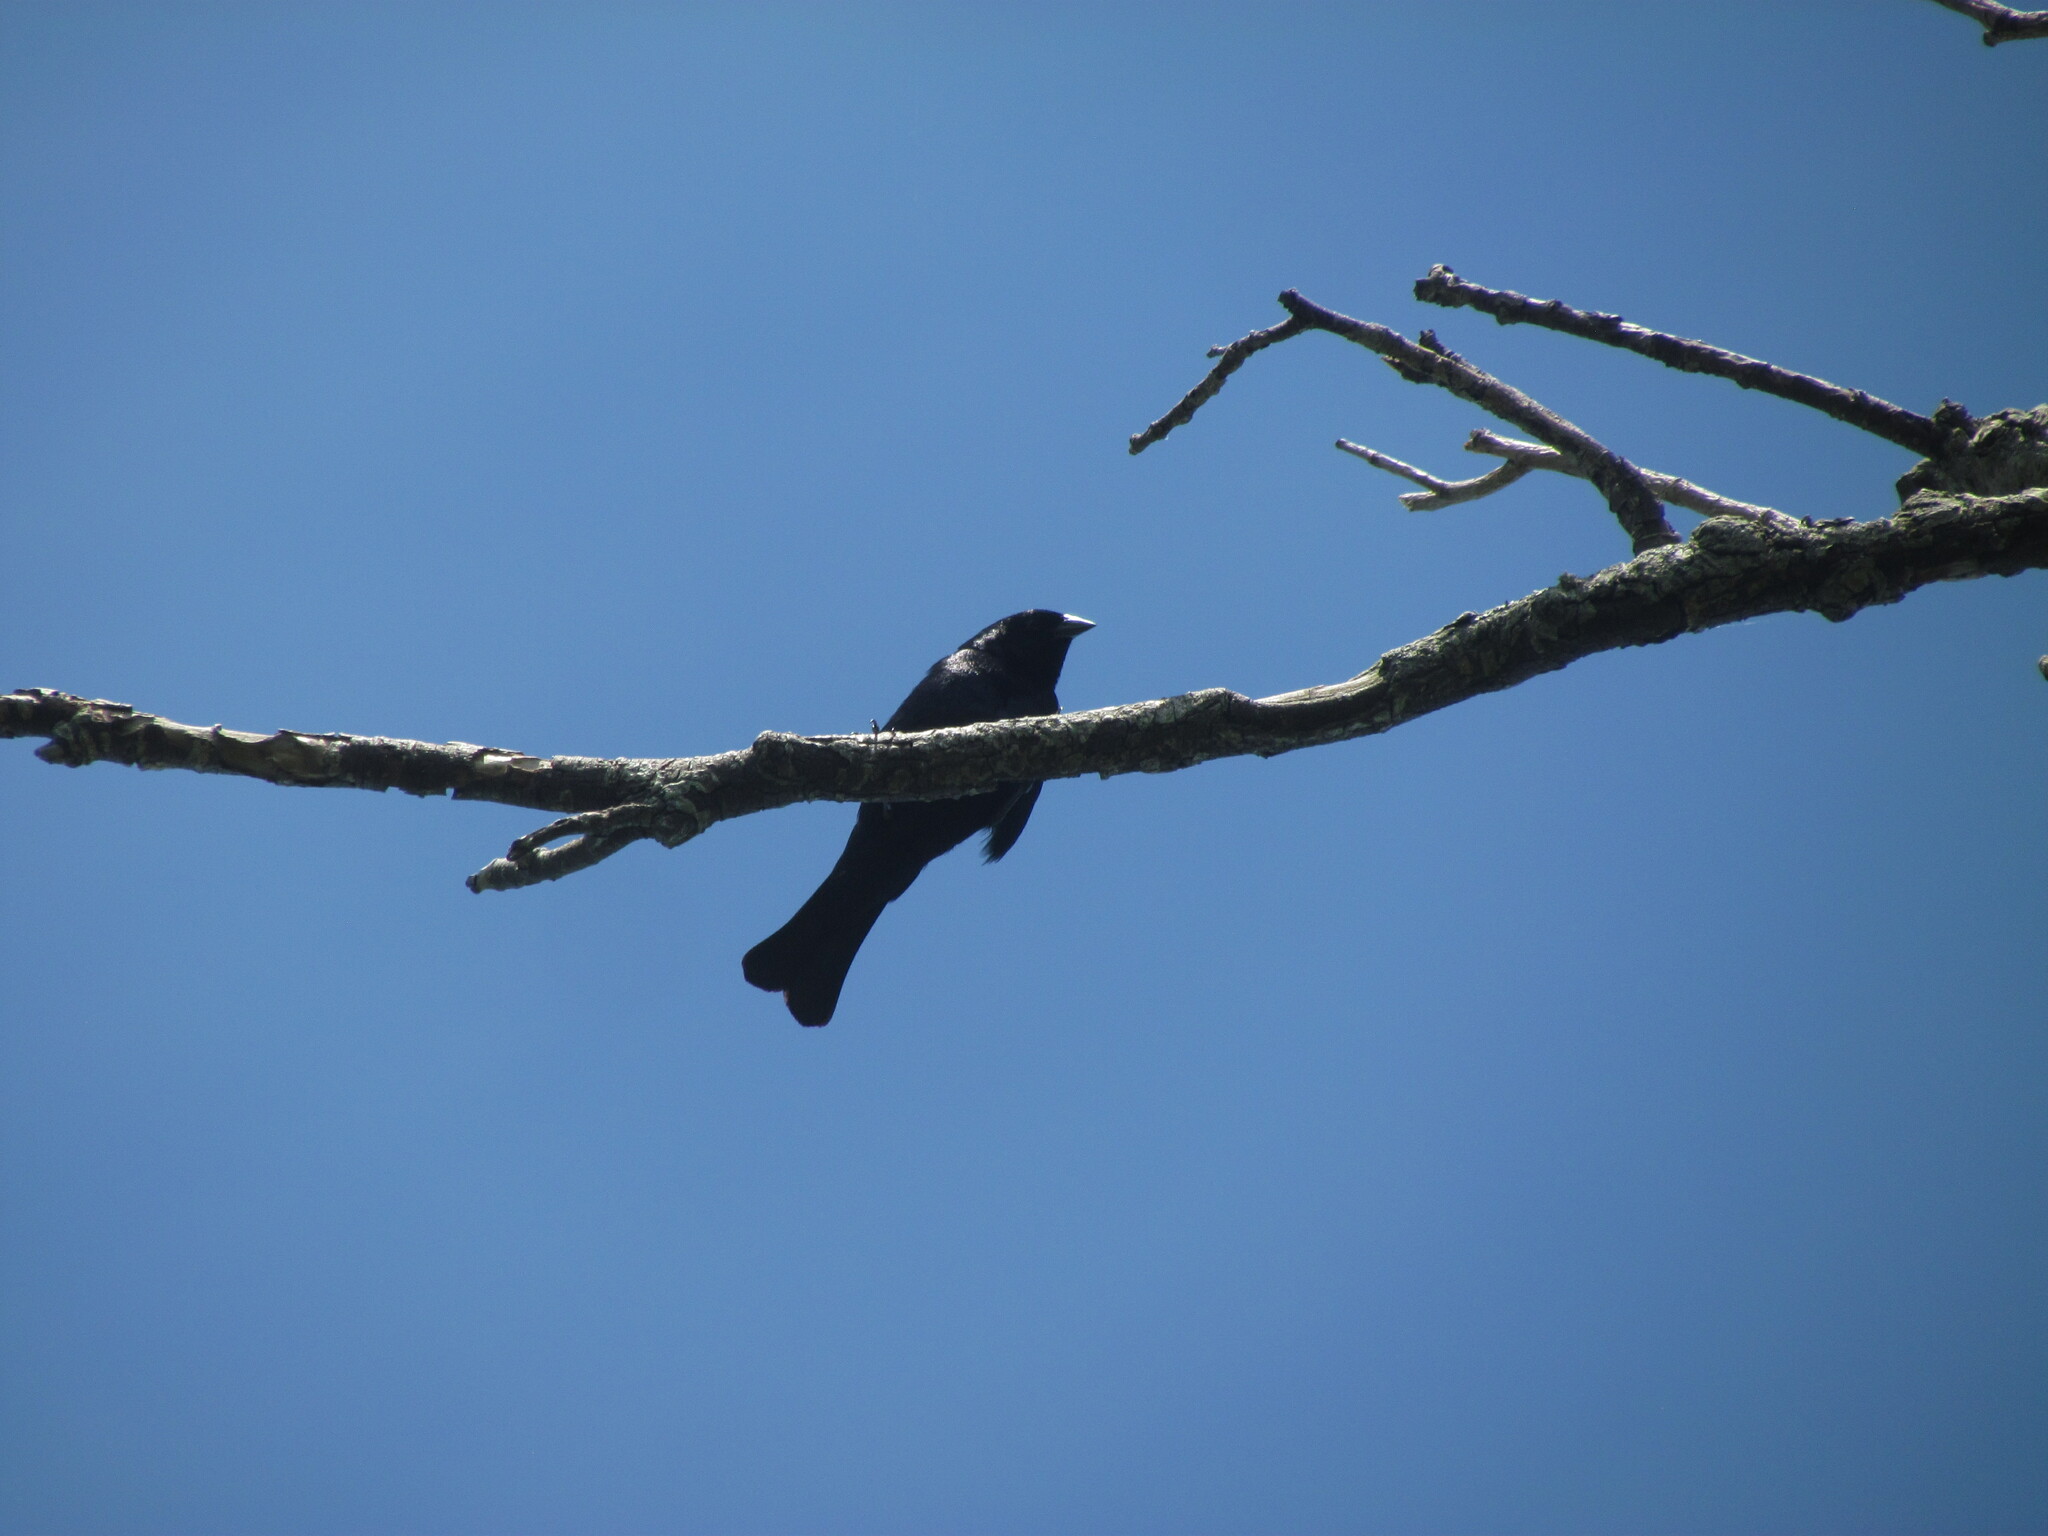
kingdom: Animalia
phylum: Chordata
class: Aves
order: Passeriformes
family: Icteridae
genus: Molothrus
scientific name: Molothrus rufoaxillaris
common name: Screaming cowbird
